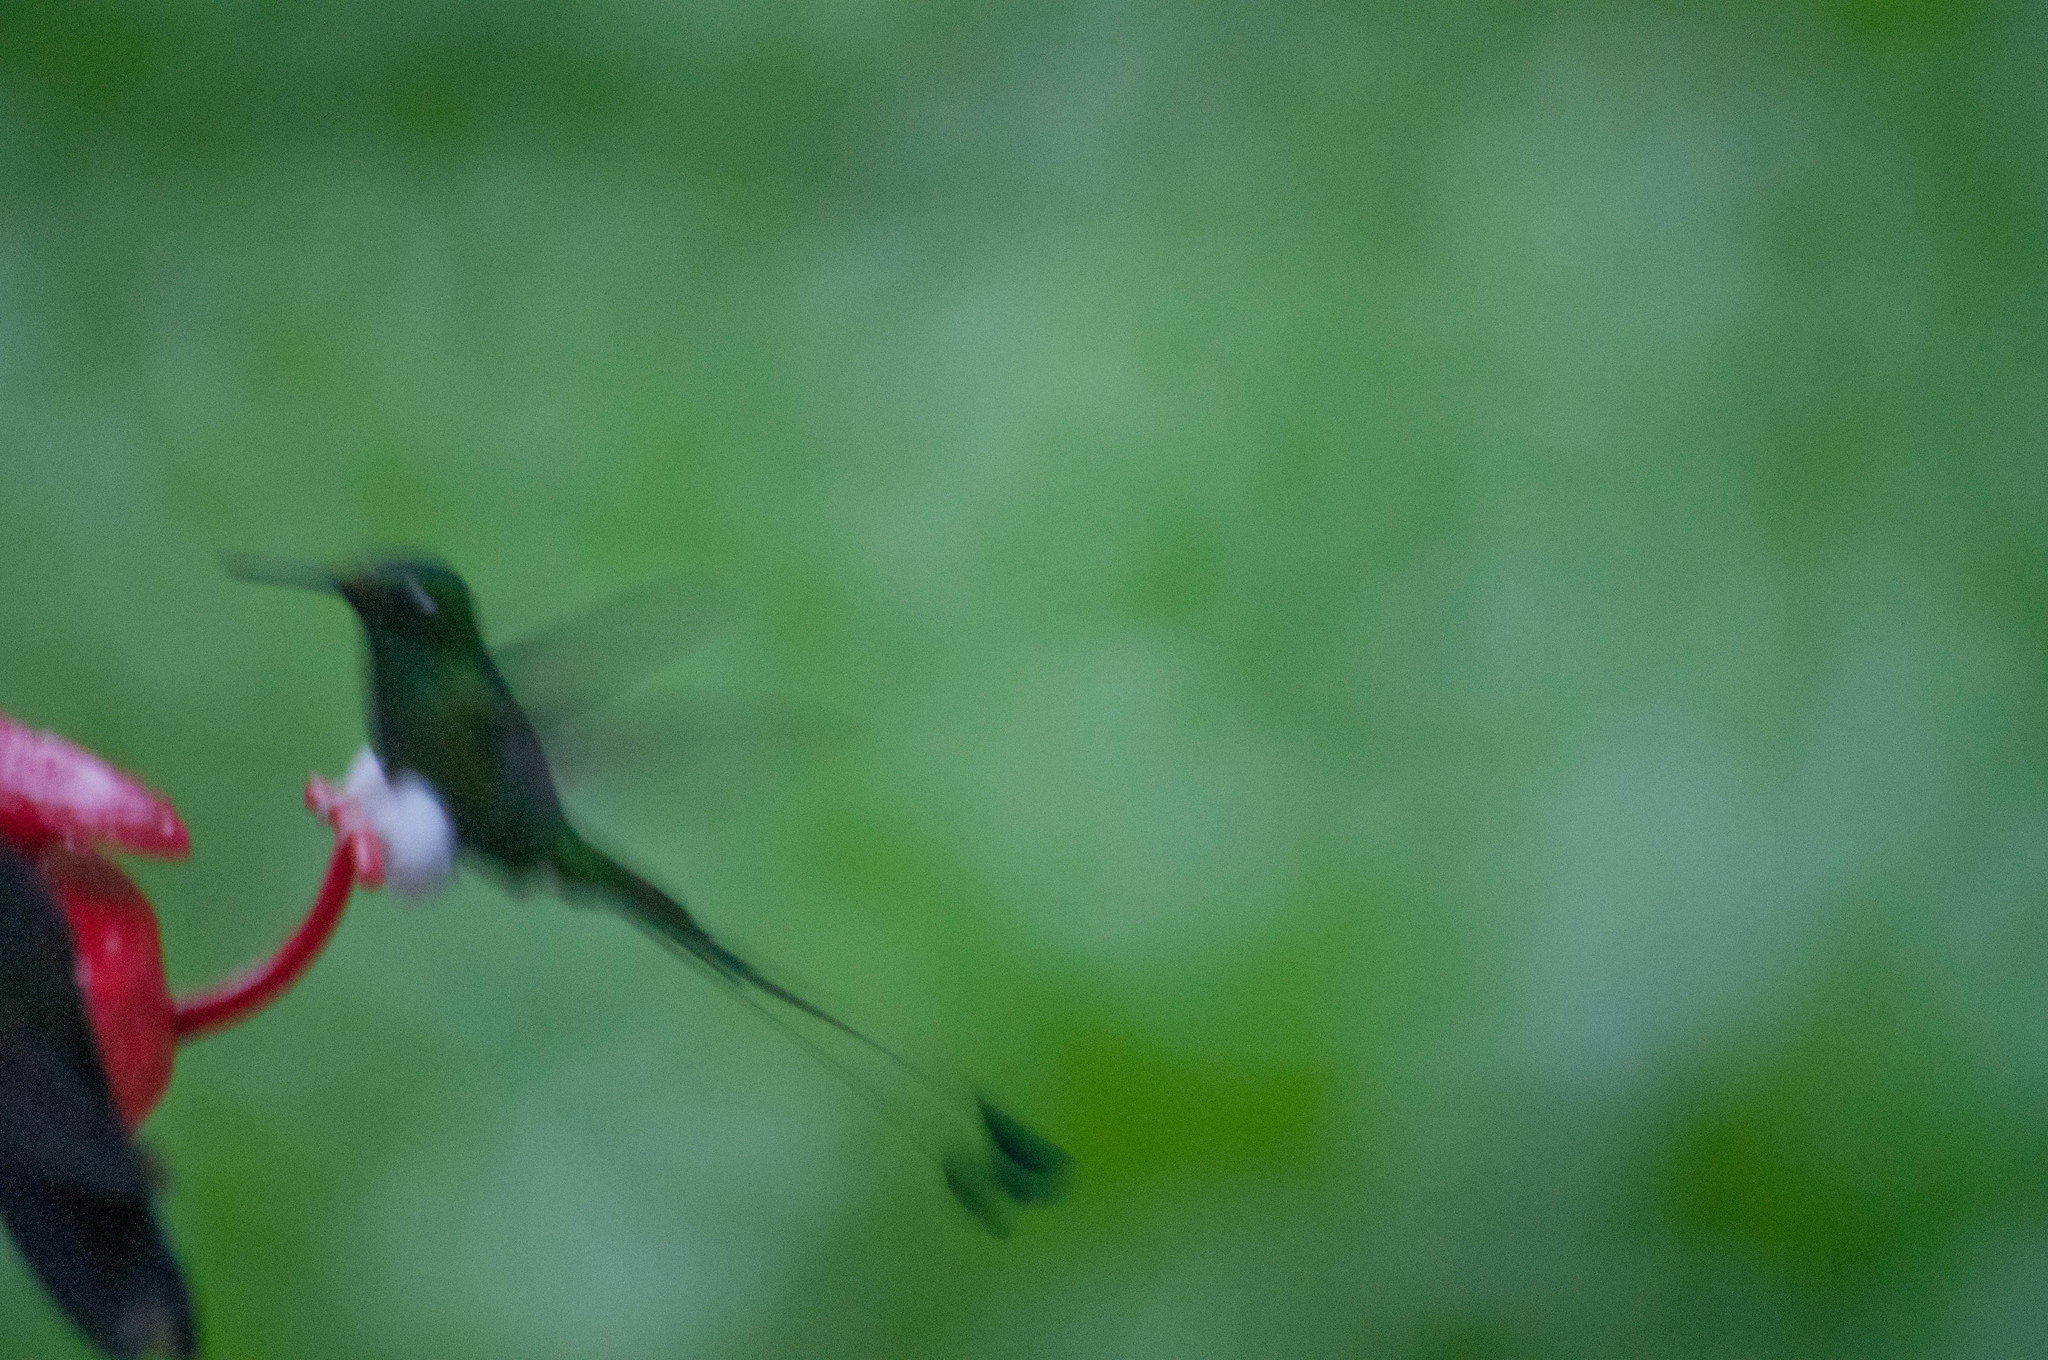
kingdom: Animalia
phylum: Chordata
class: Aves
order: Apodiformes
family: Trochilidae
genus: Ocreatus
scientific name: Ocreatus underwoodii
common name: Booted racket-tail
